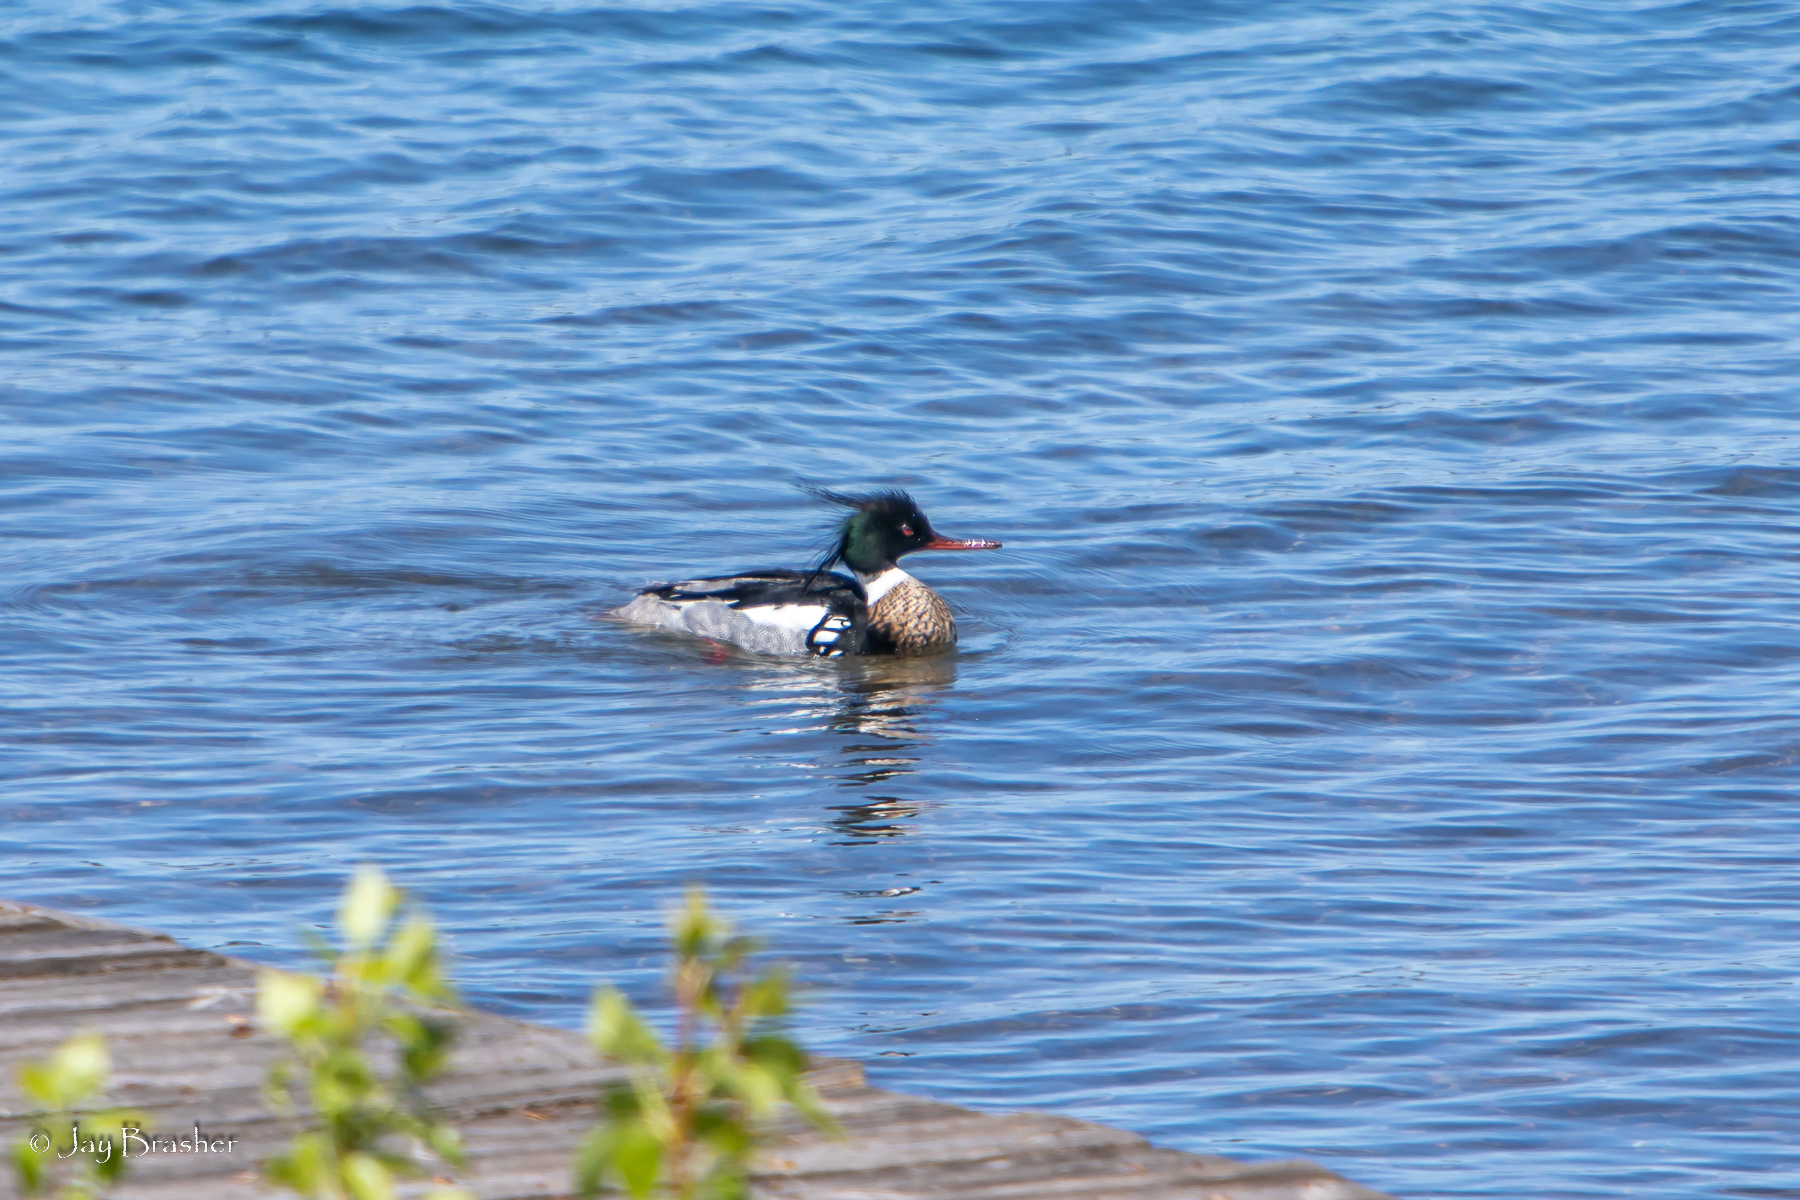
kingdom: Animalia
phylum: Chordata
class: Aves
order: Anseriformes
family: Anatidae
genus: Mergus
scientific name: Mergus serrator
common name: Red-breasted merganser
